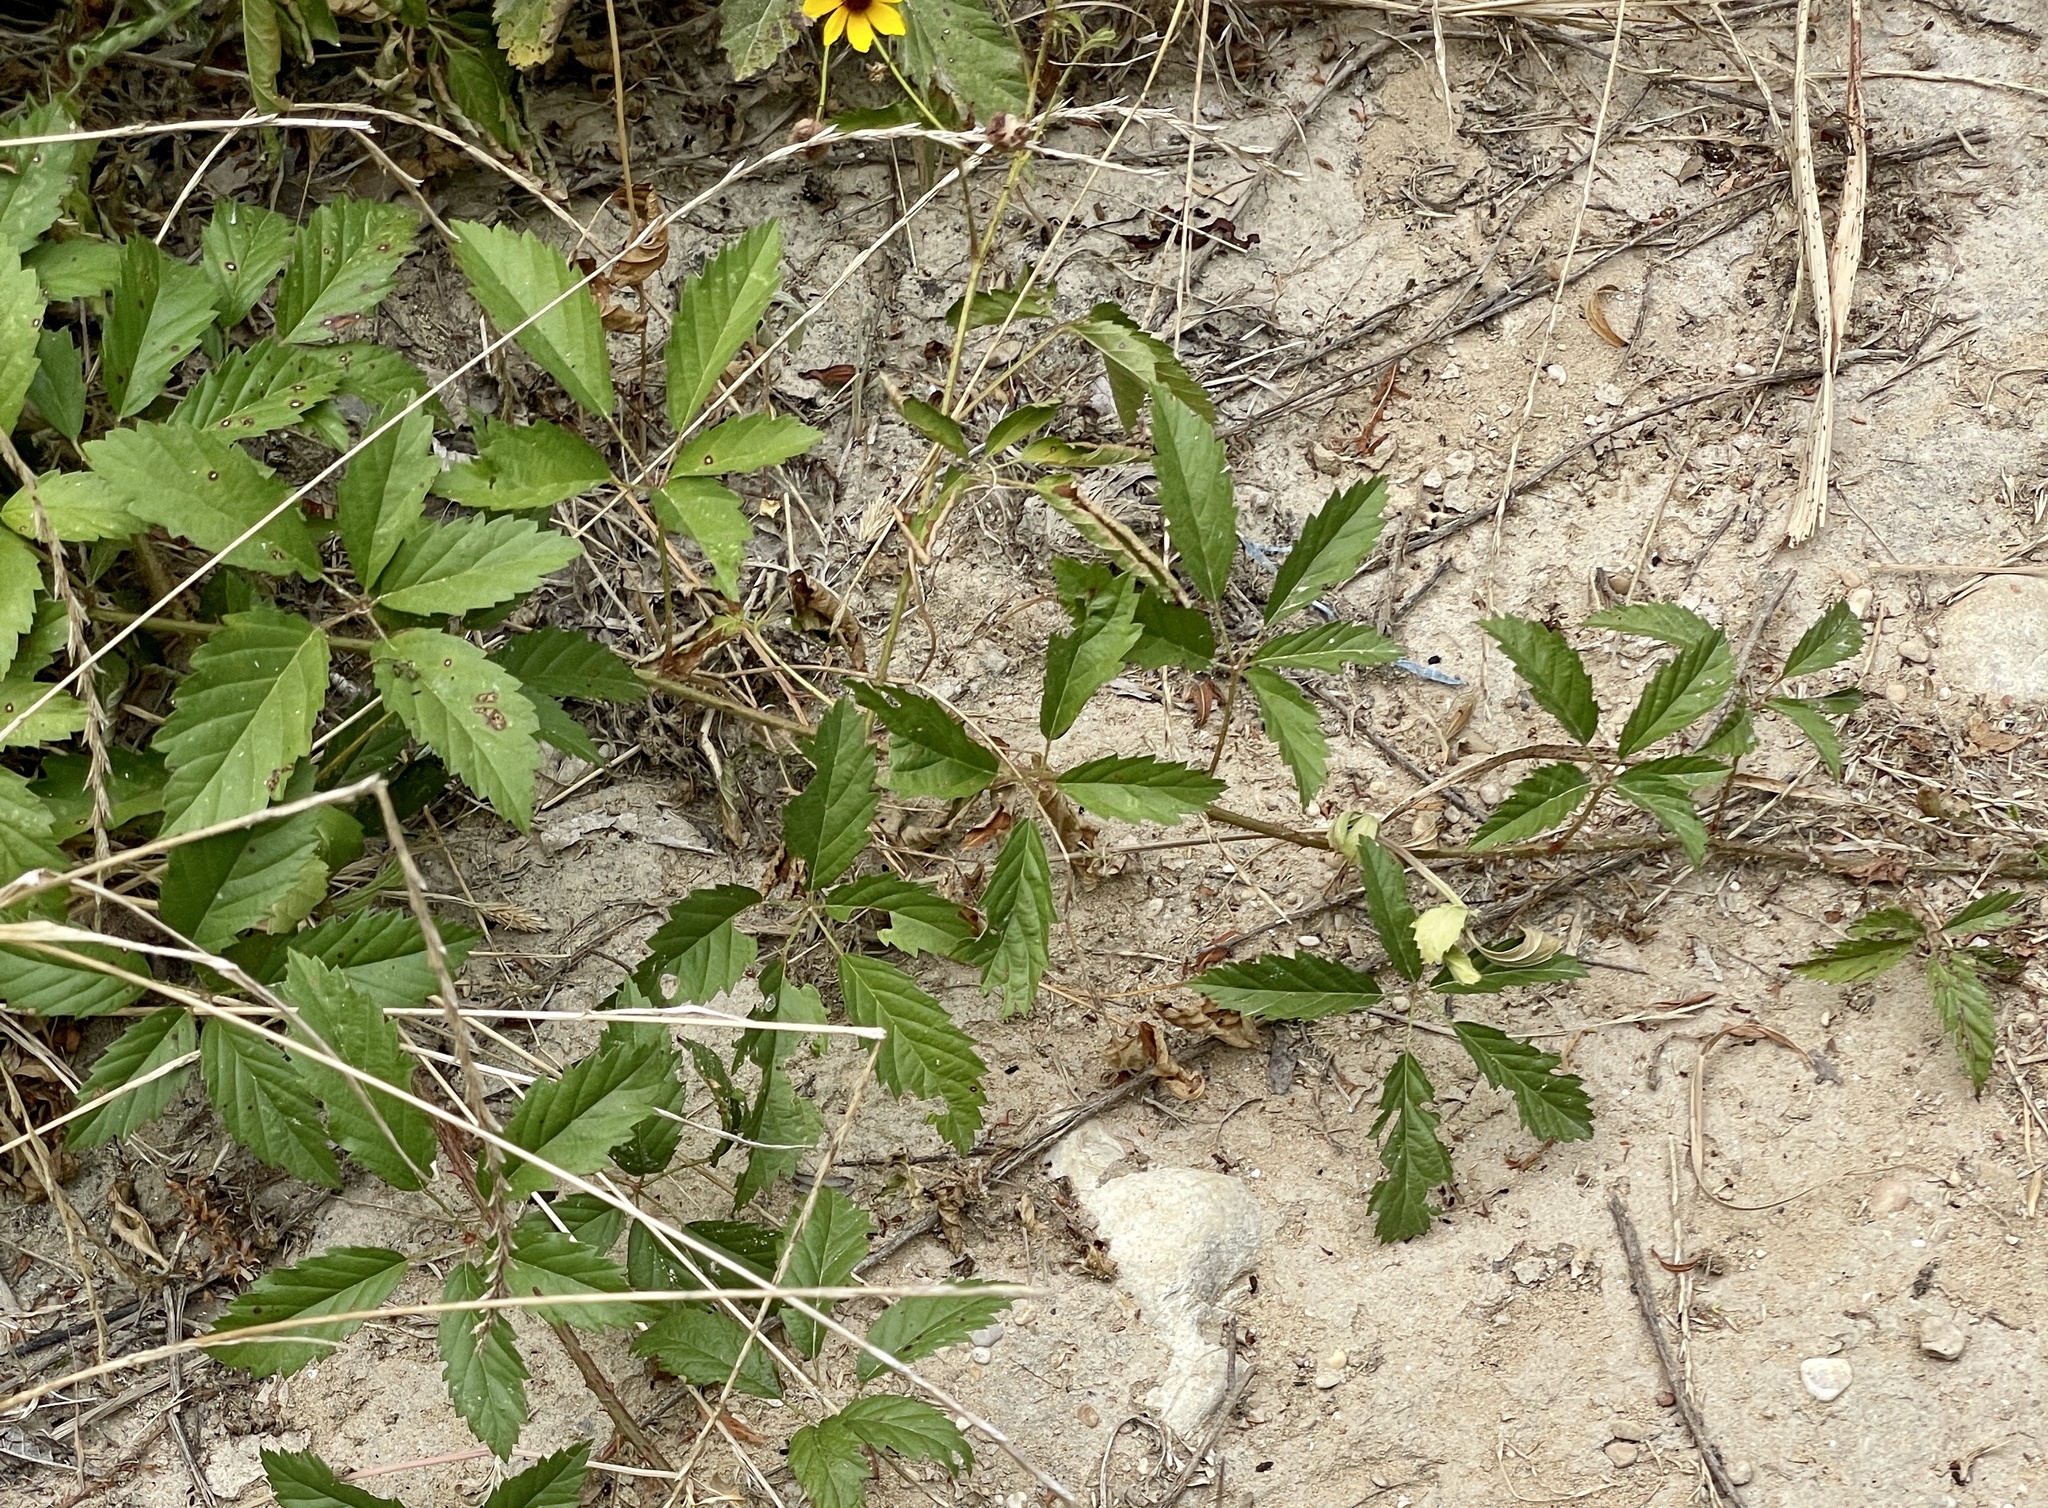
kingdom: Plantae
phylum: Tracheophyta
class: Magnoliopsida
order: Rosales
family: Rosaceae
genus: Rubus
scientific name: Rubus trivialis
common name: Southern dewberry
